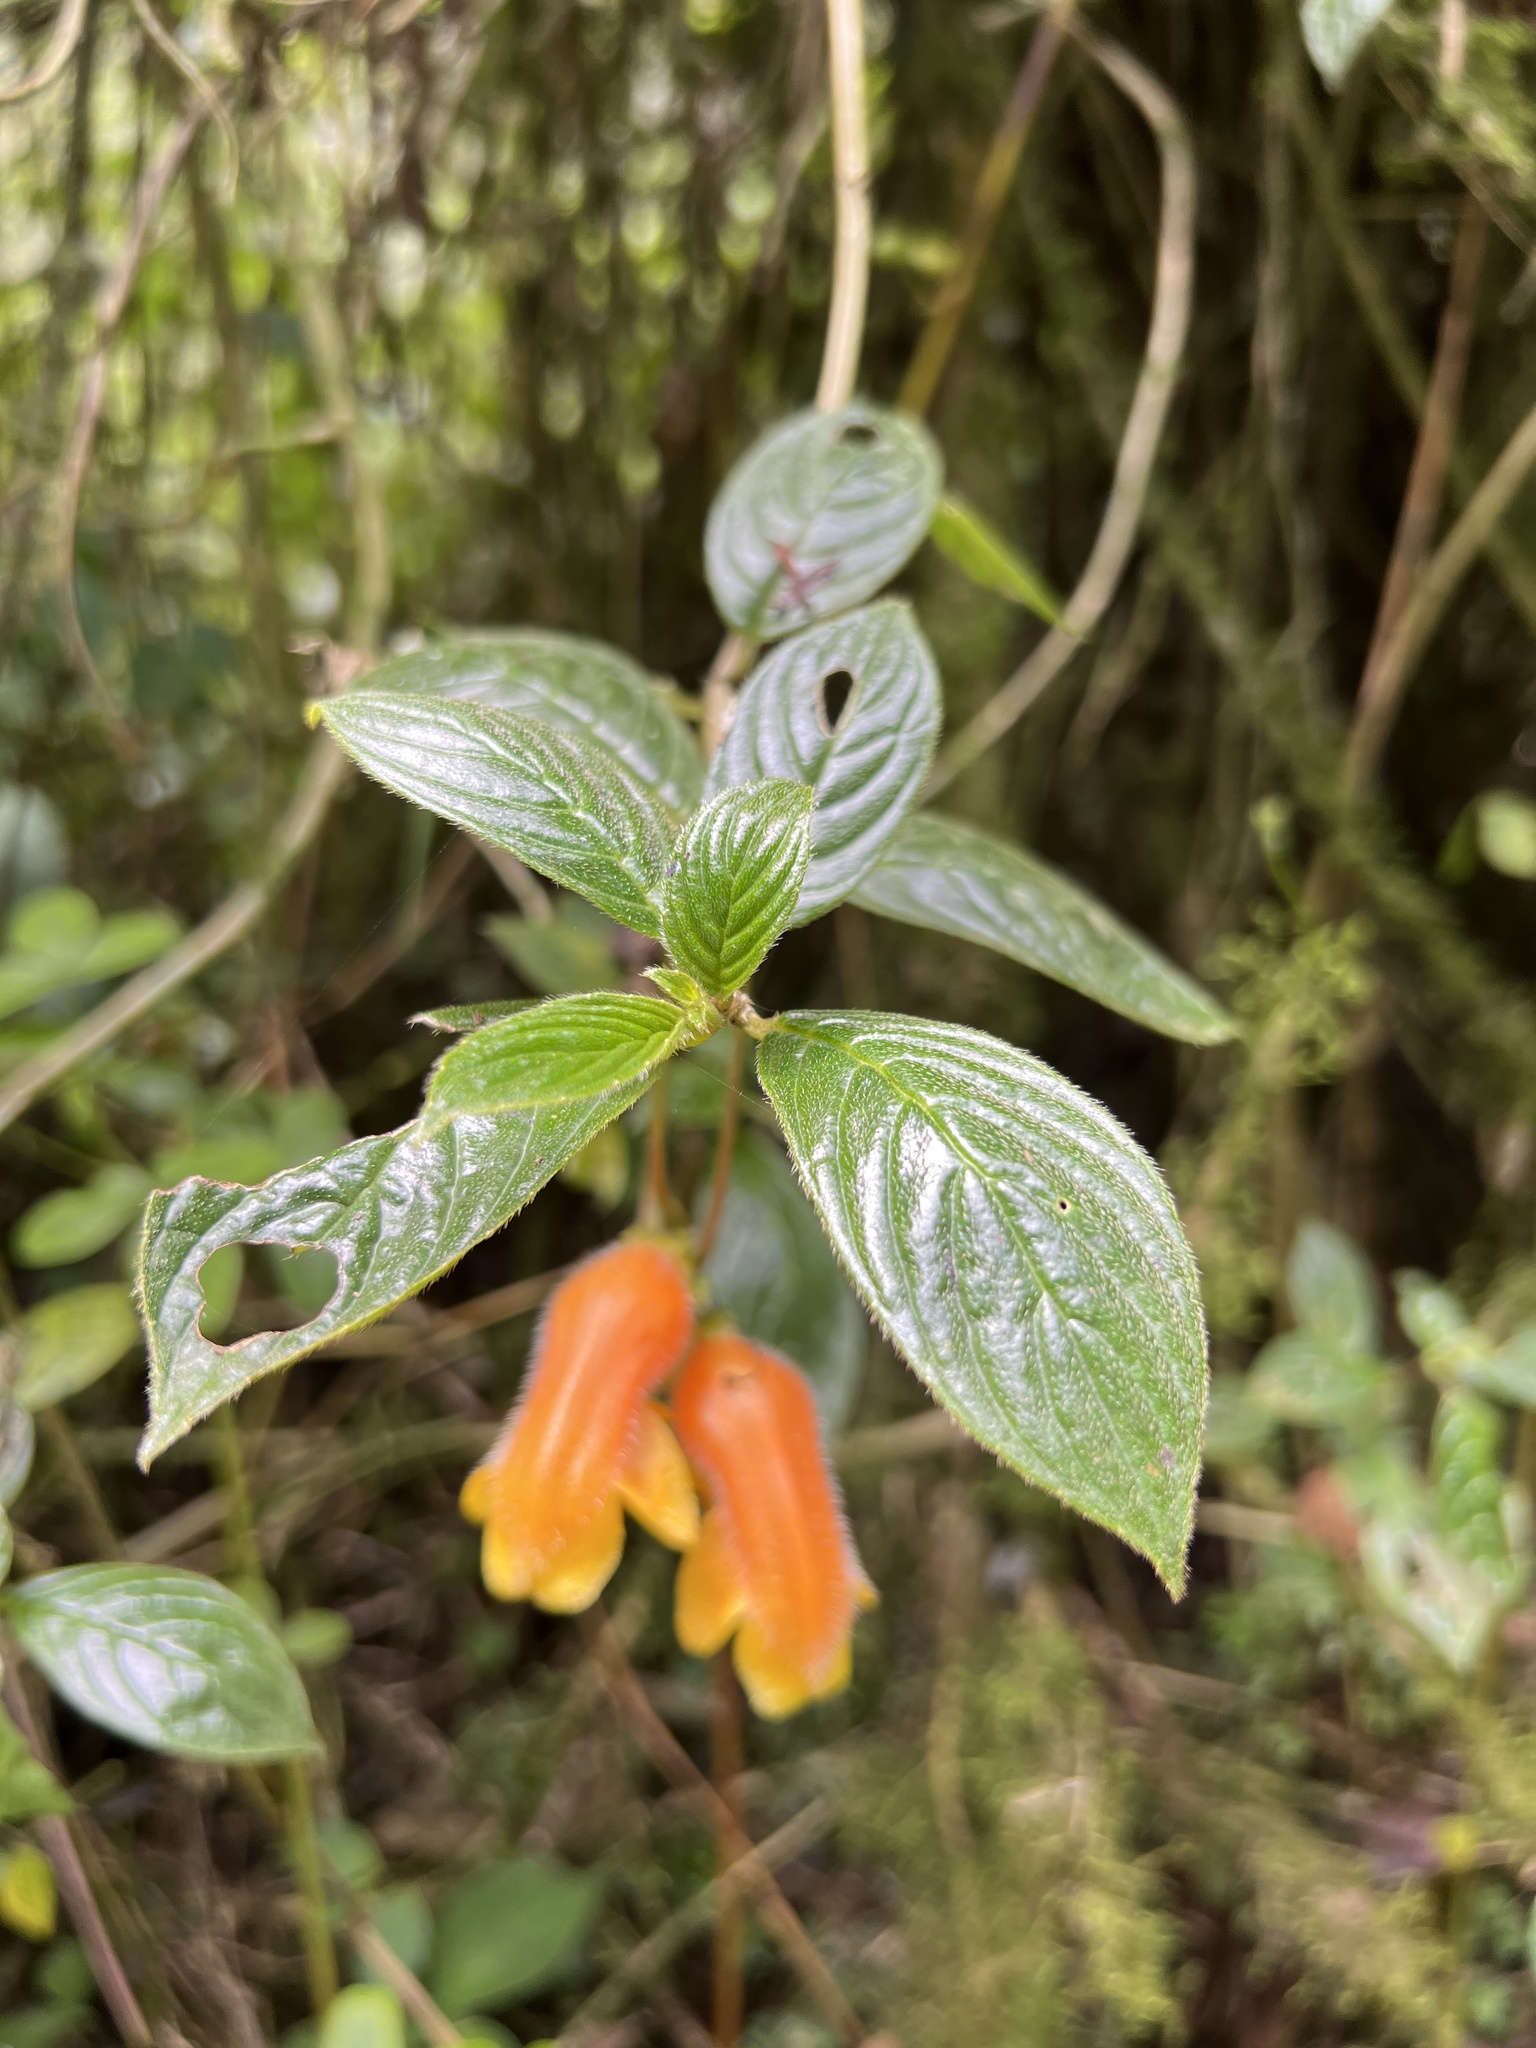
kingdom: Plantae
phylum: Tracheophyta
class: Magnoliopsida
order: Lamiales
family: Gesneriaceae
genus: Columnea
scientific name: Columnea strigosa
